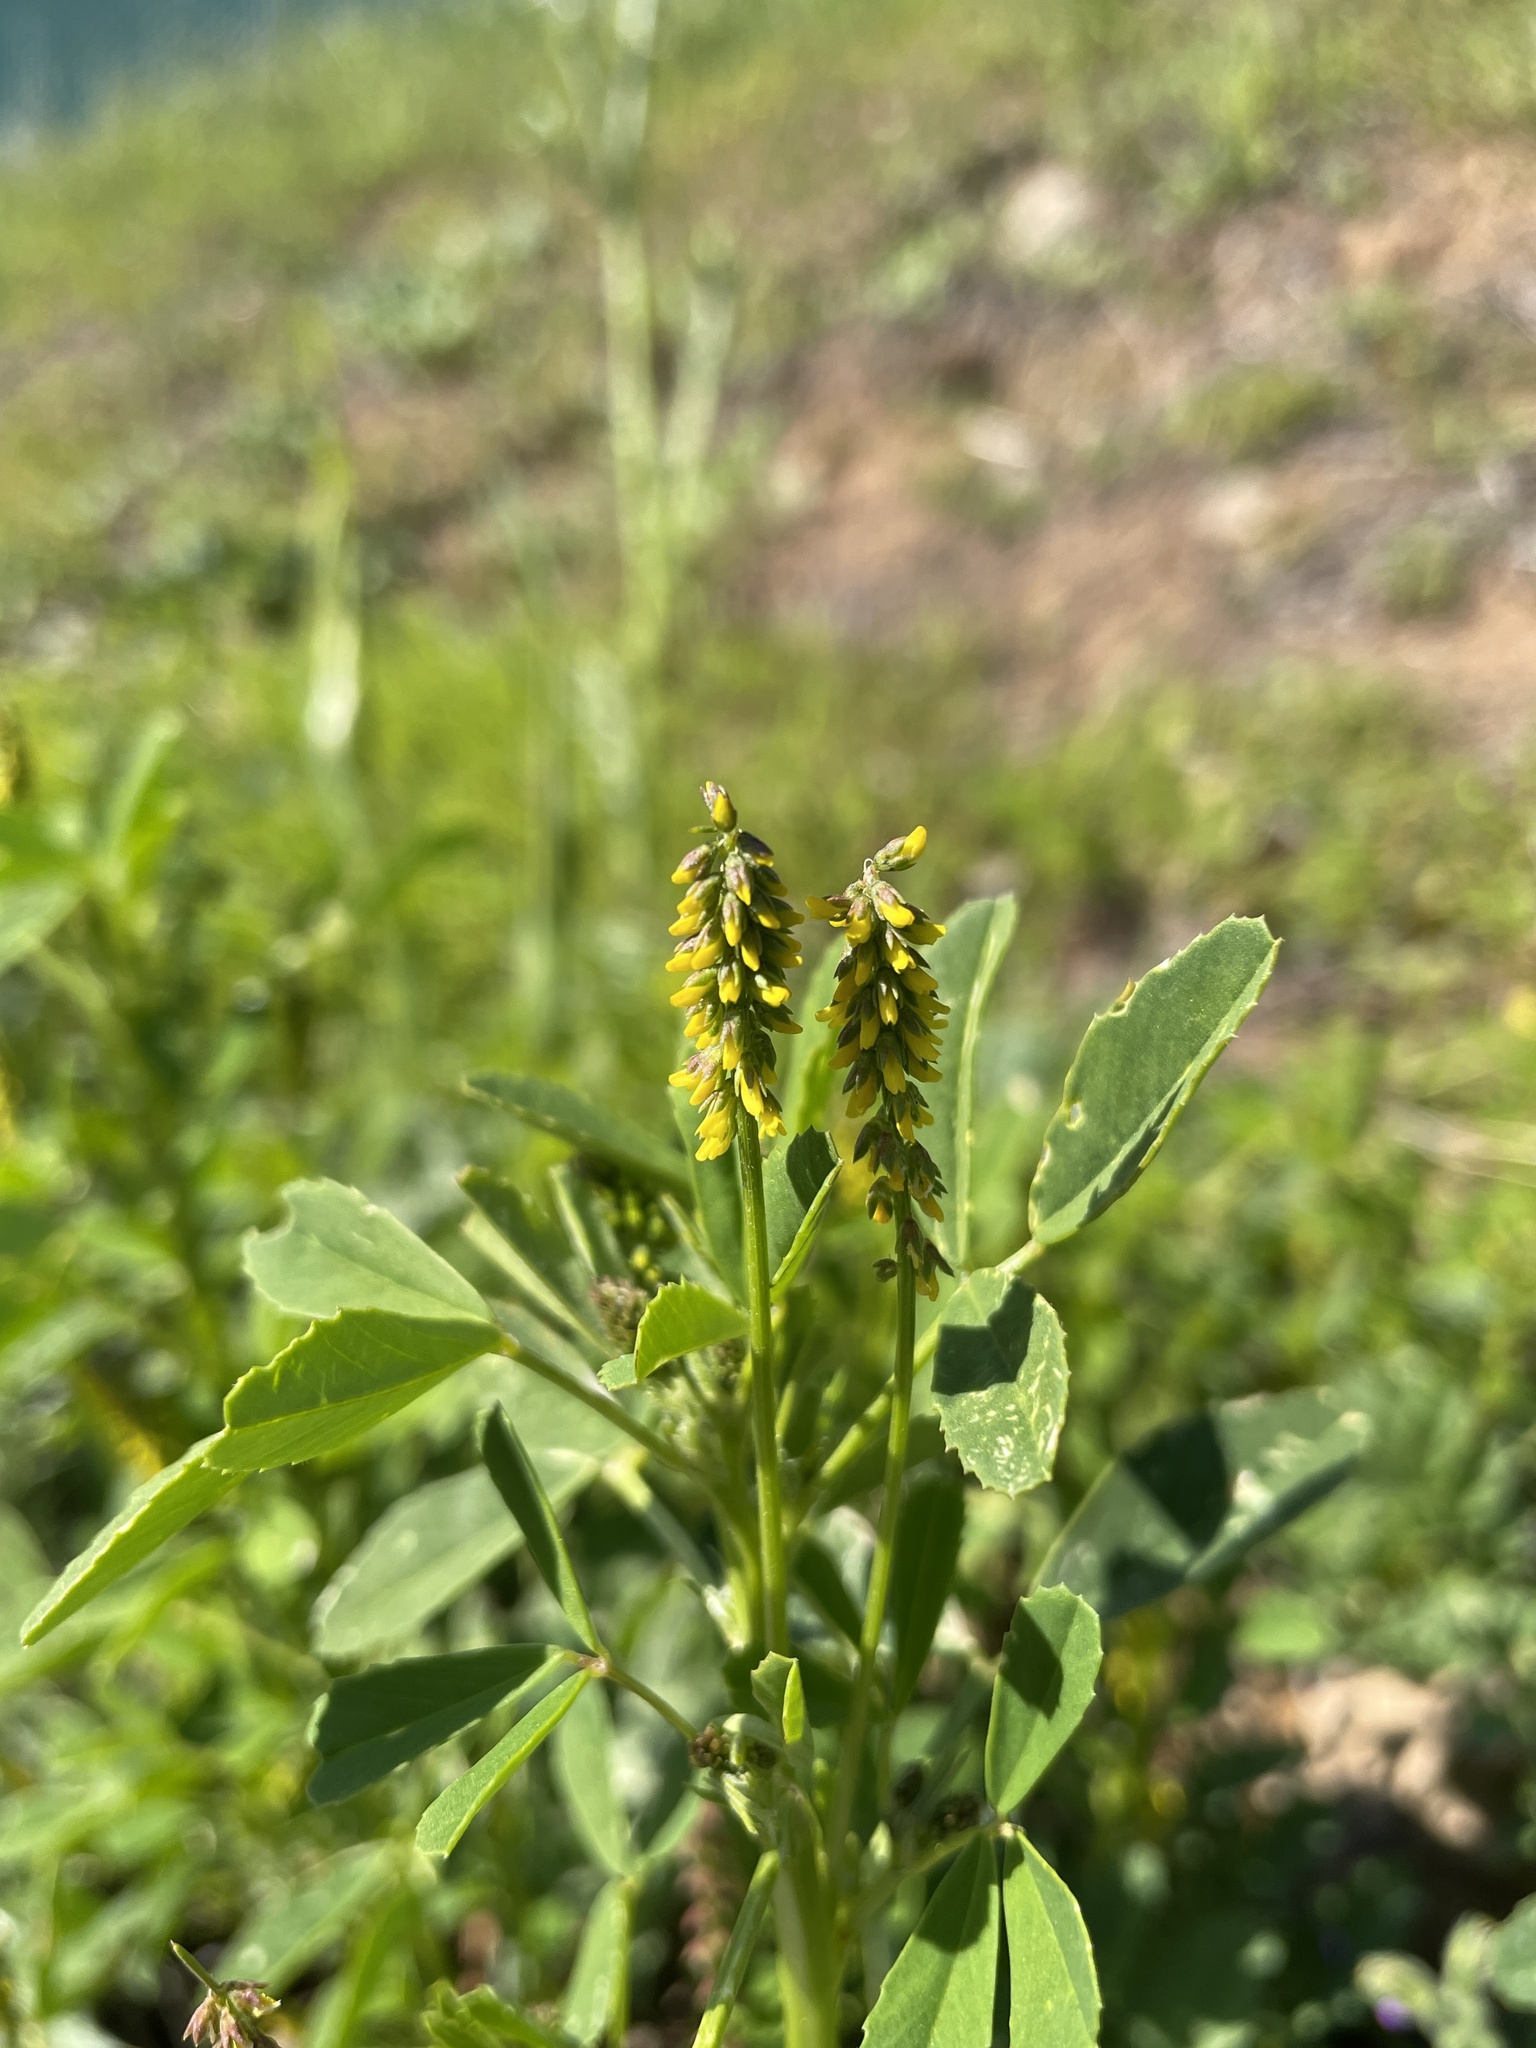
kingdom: Plantae
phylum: Tracheophyta
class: Magnoliopsida
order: Fabales
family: Fabaceae
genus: Melilotus
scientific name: Melilotus indicus
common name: Small melilot
